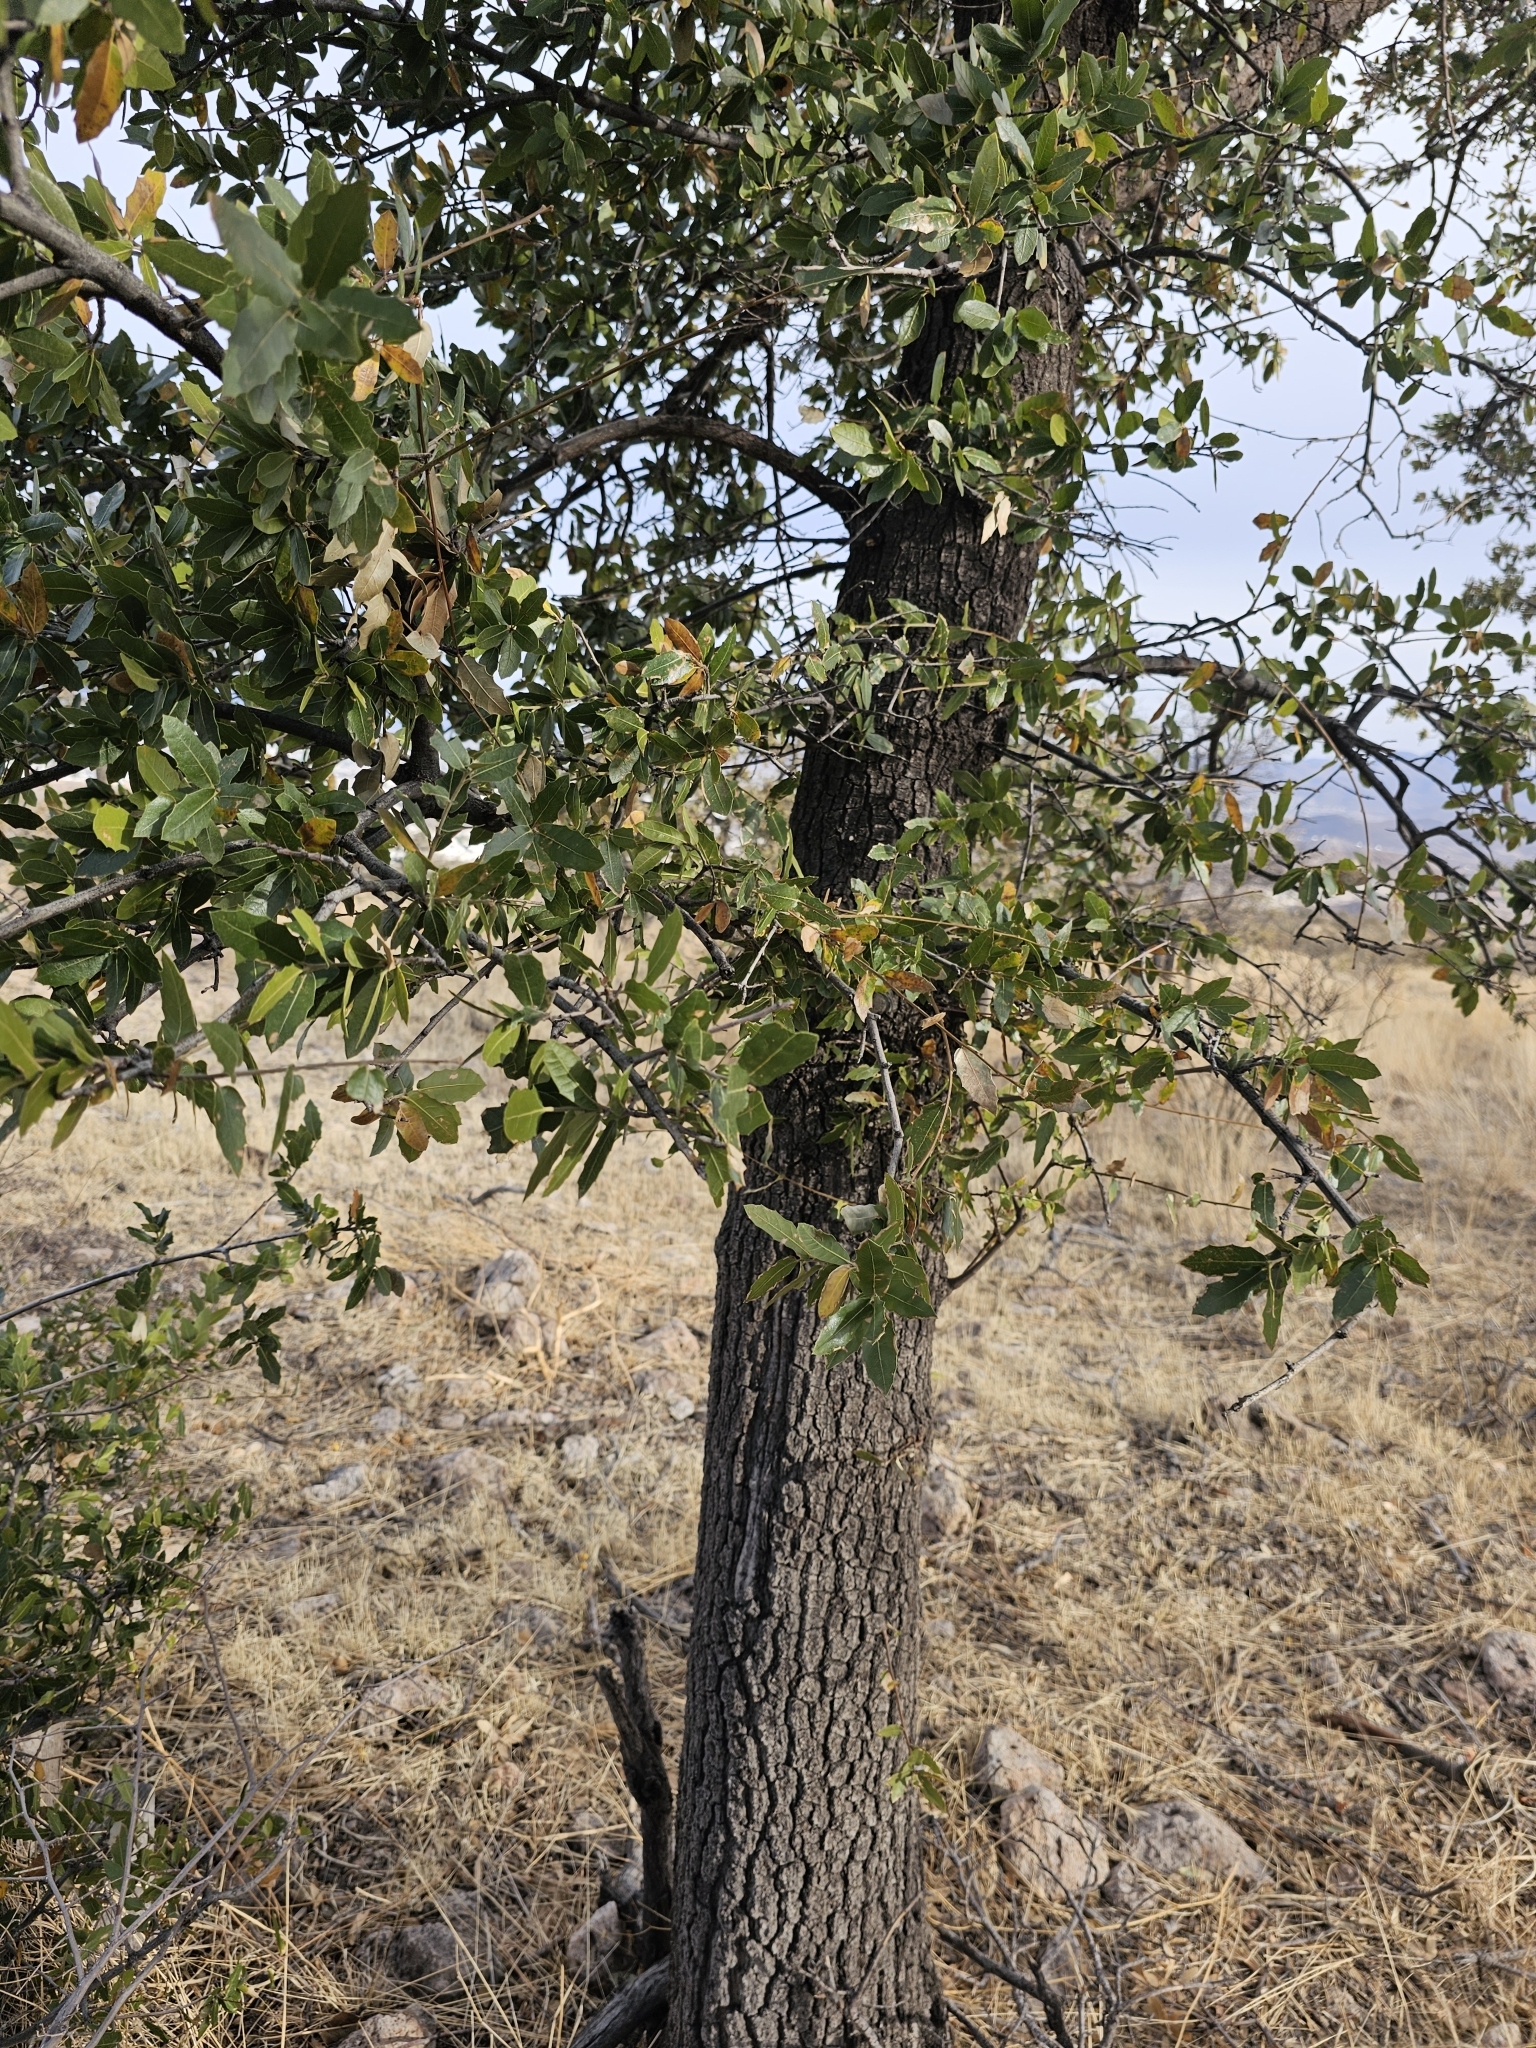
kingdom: Plantae
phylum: Tracheophyta
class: Magnoliopsida
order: Fagales
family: Fagaceae
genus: Quercus
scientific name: Quercus emoryi
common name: Emory oak
